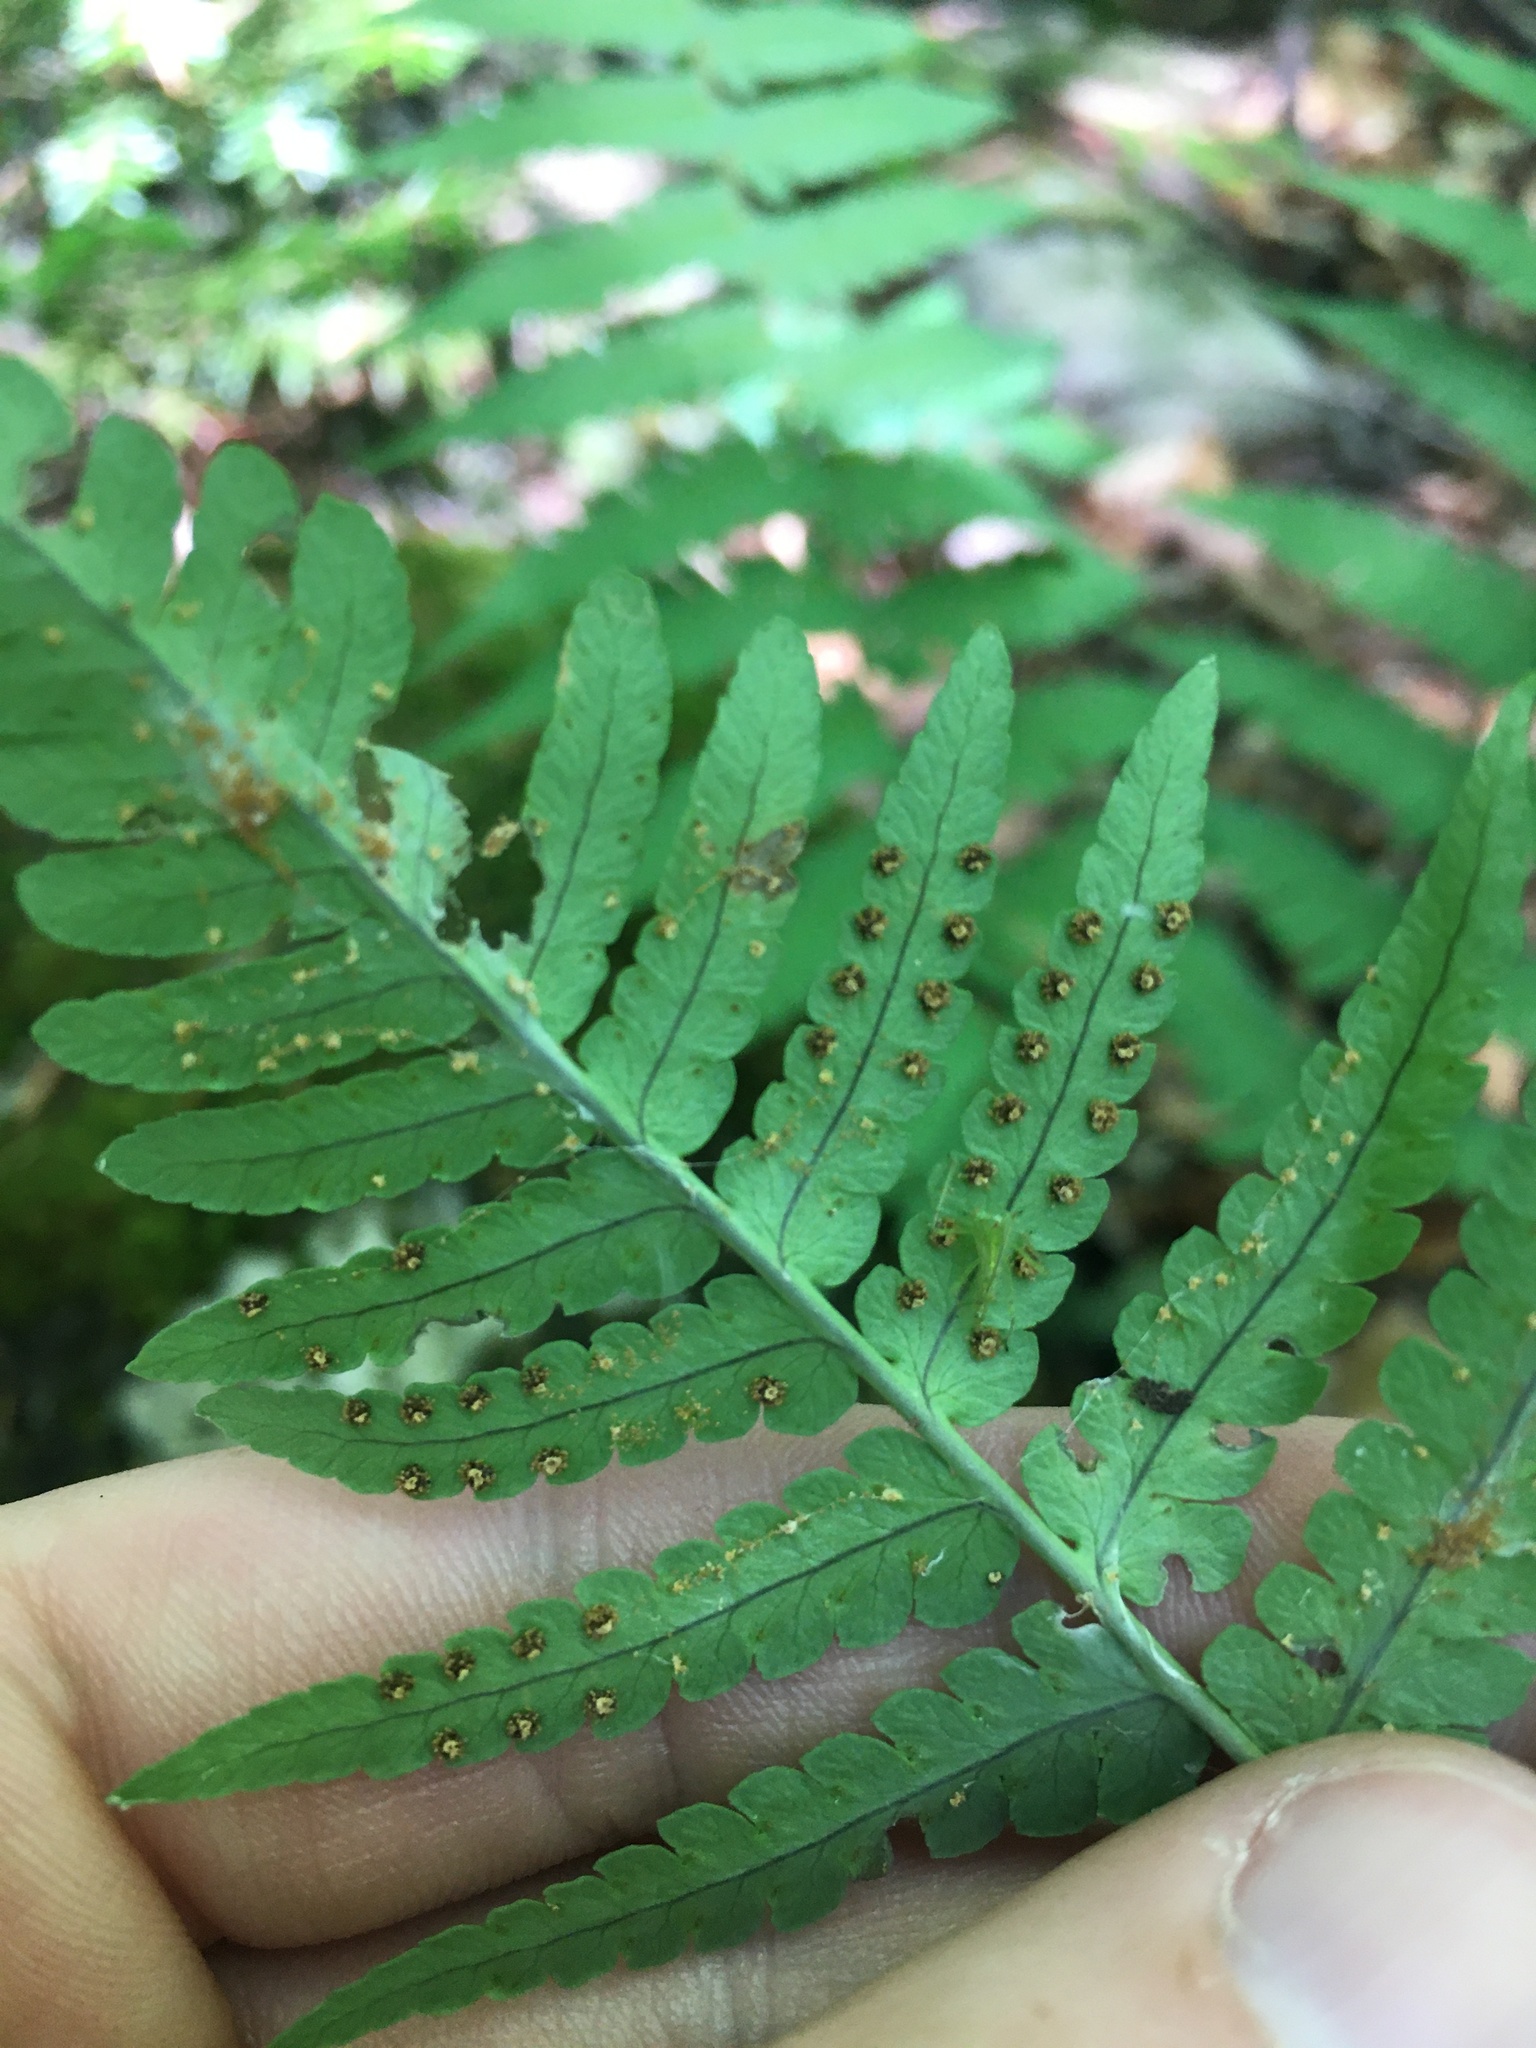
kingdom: Plantae
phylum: Tracheophyta
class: Polypodiopsida
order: Polypodiales
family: Dryopteridaceae
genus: Dryopteris
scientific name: Dryopteris marginalis
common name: Marginal wood fern
